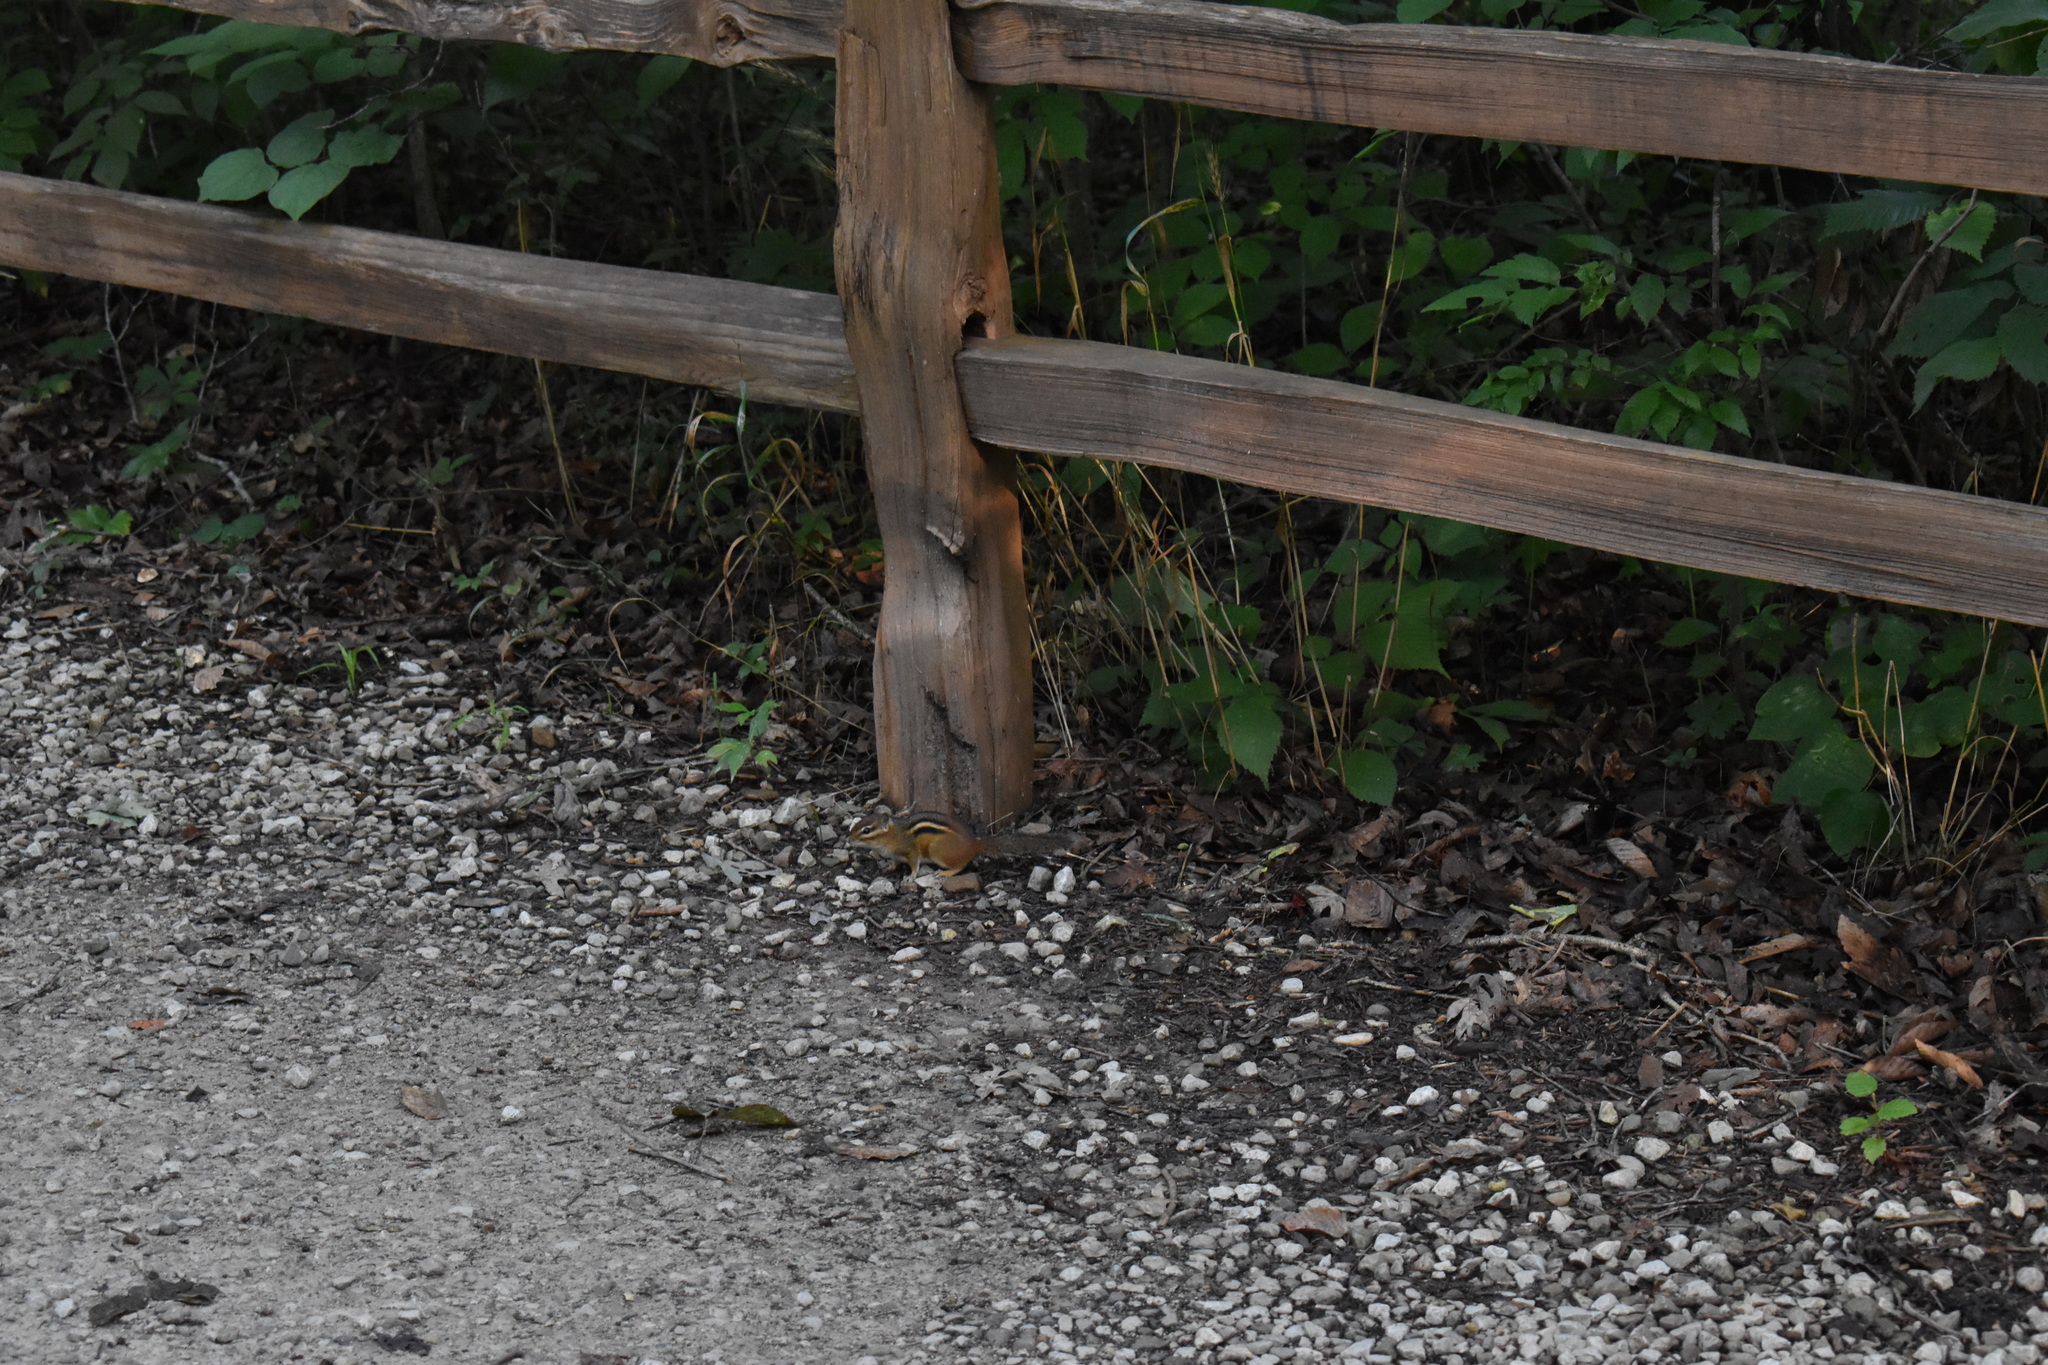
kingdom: Animalia
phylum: Chordata
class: Mammalia
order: Rodentia
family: Sciuridae
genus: Tamias
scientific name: Tamias striatus
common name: Eastern chipmunk
